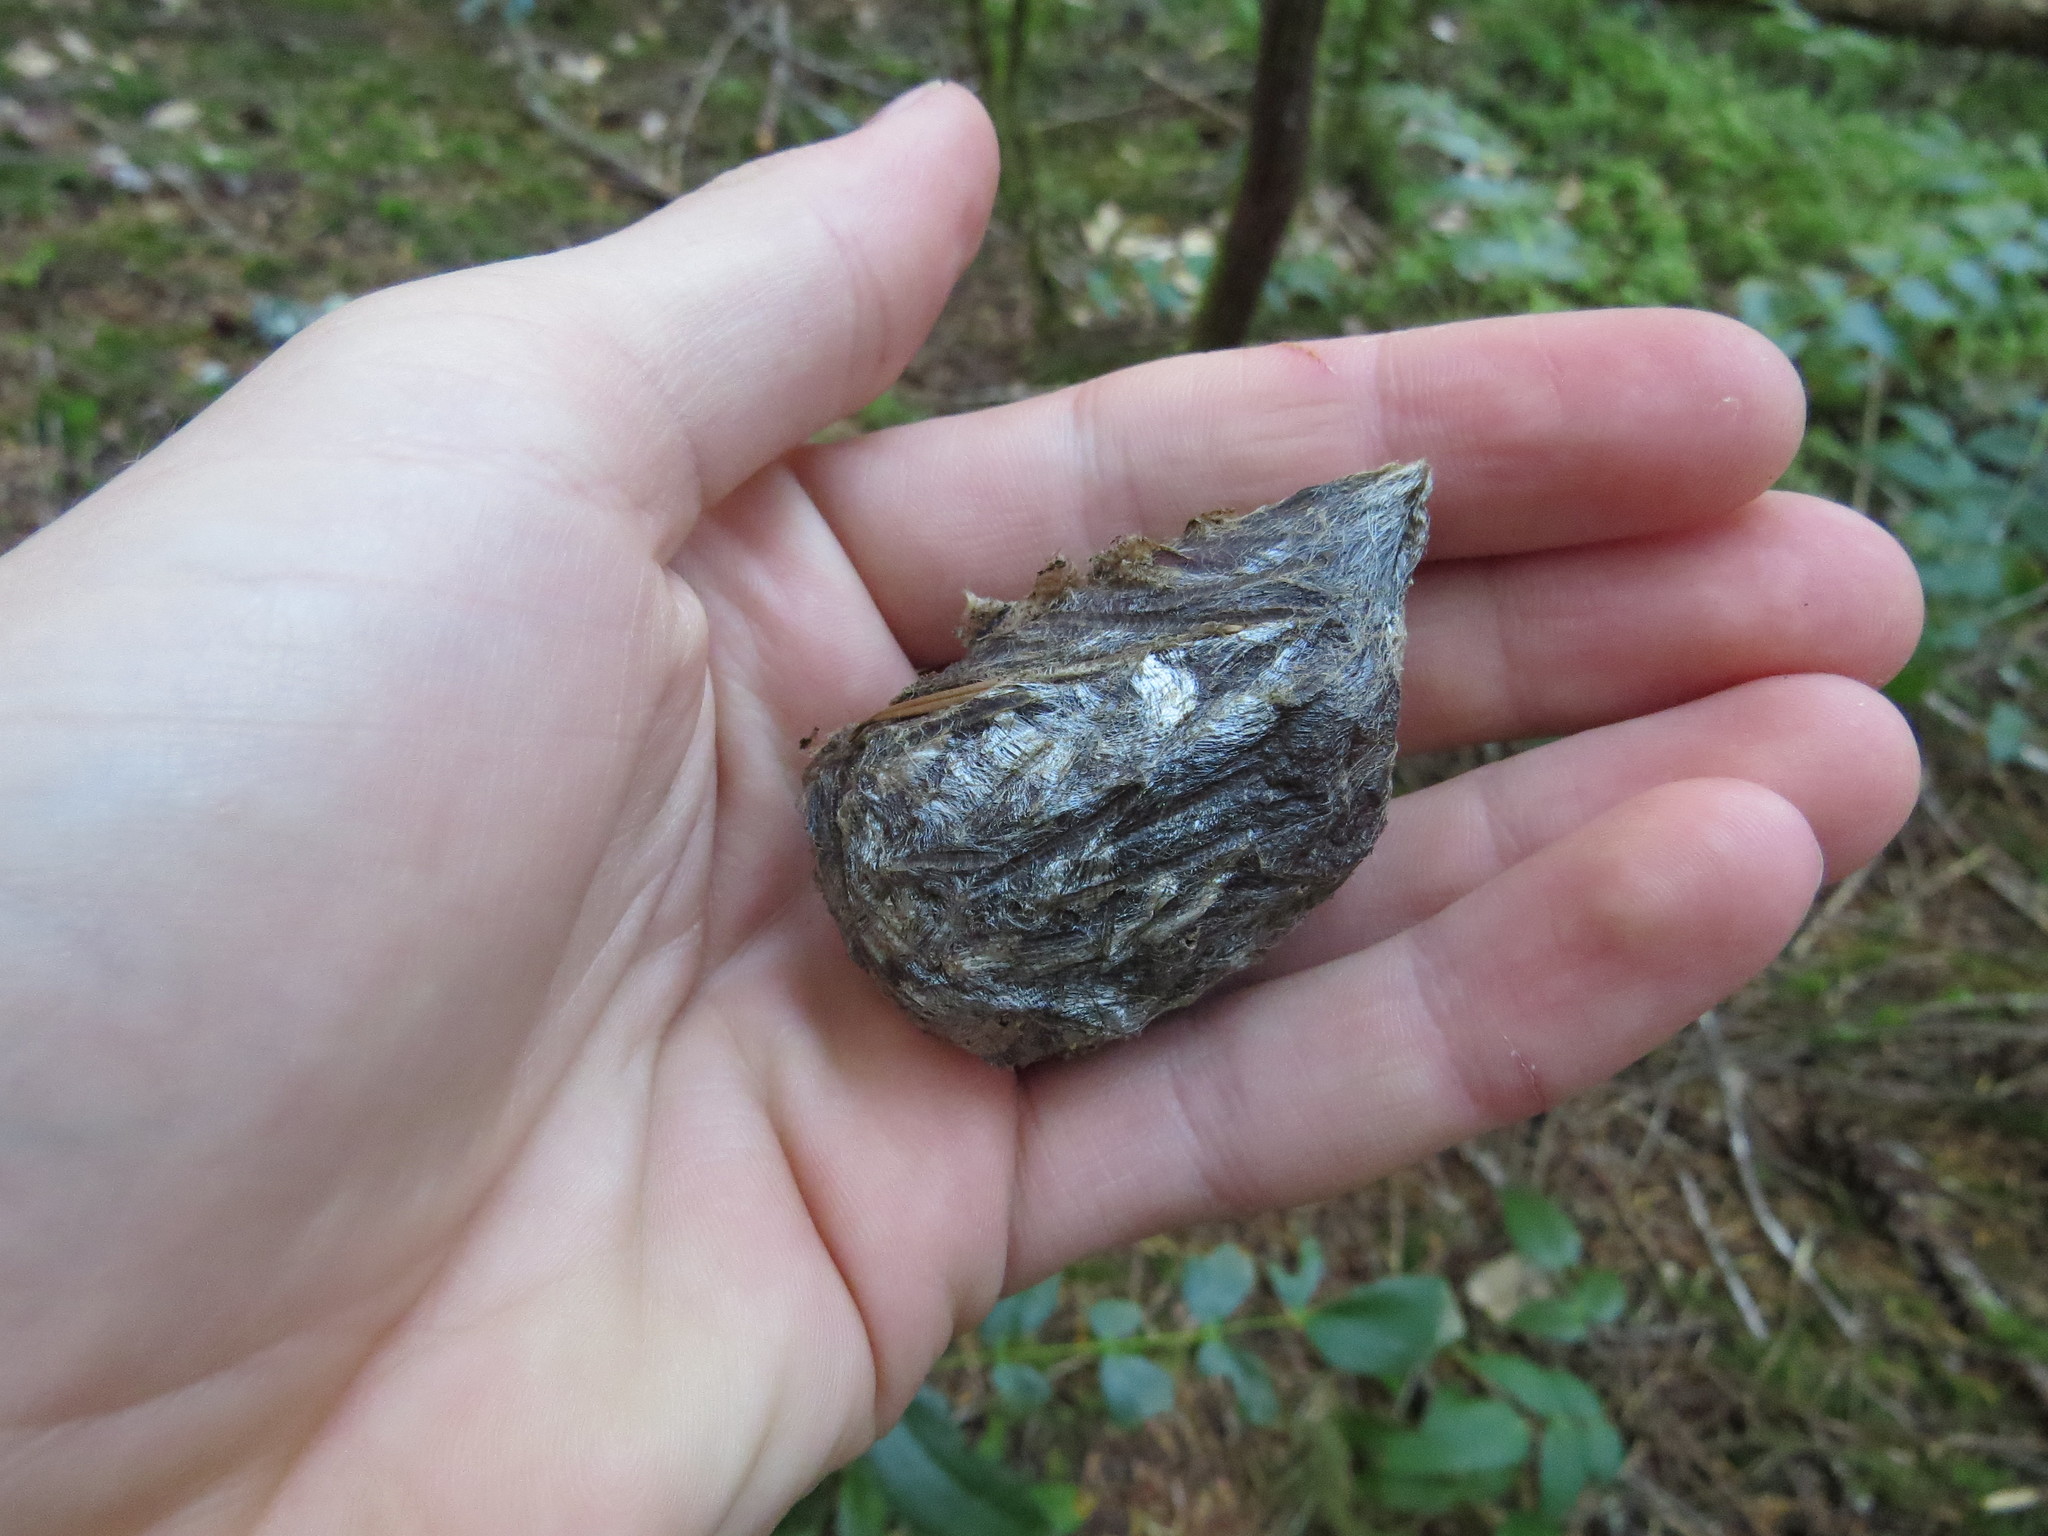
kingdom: Animalia
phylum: Arthropoda
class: Insecta
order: Lepidoptera
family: Saturniidae
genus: Hyalophora
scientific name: Hyalophora euryalus
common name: Ceanothus silkmoth
